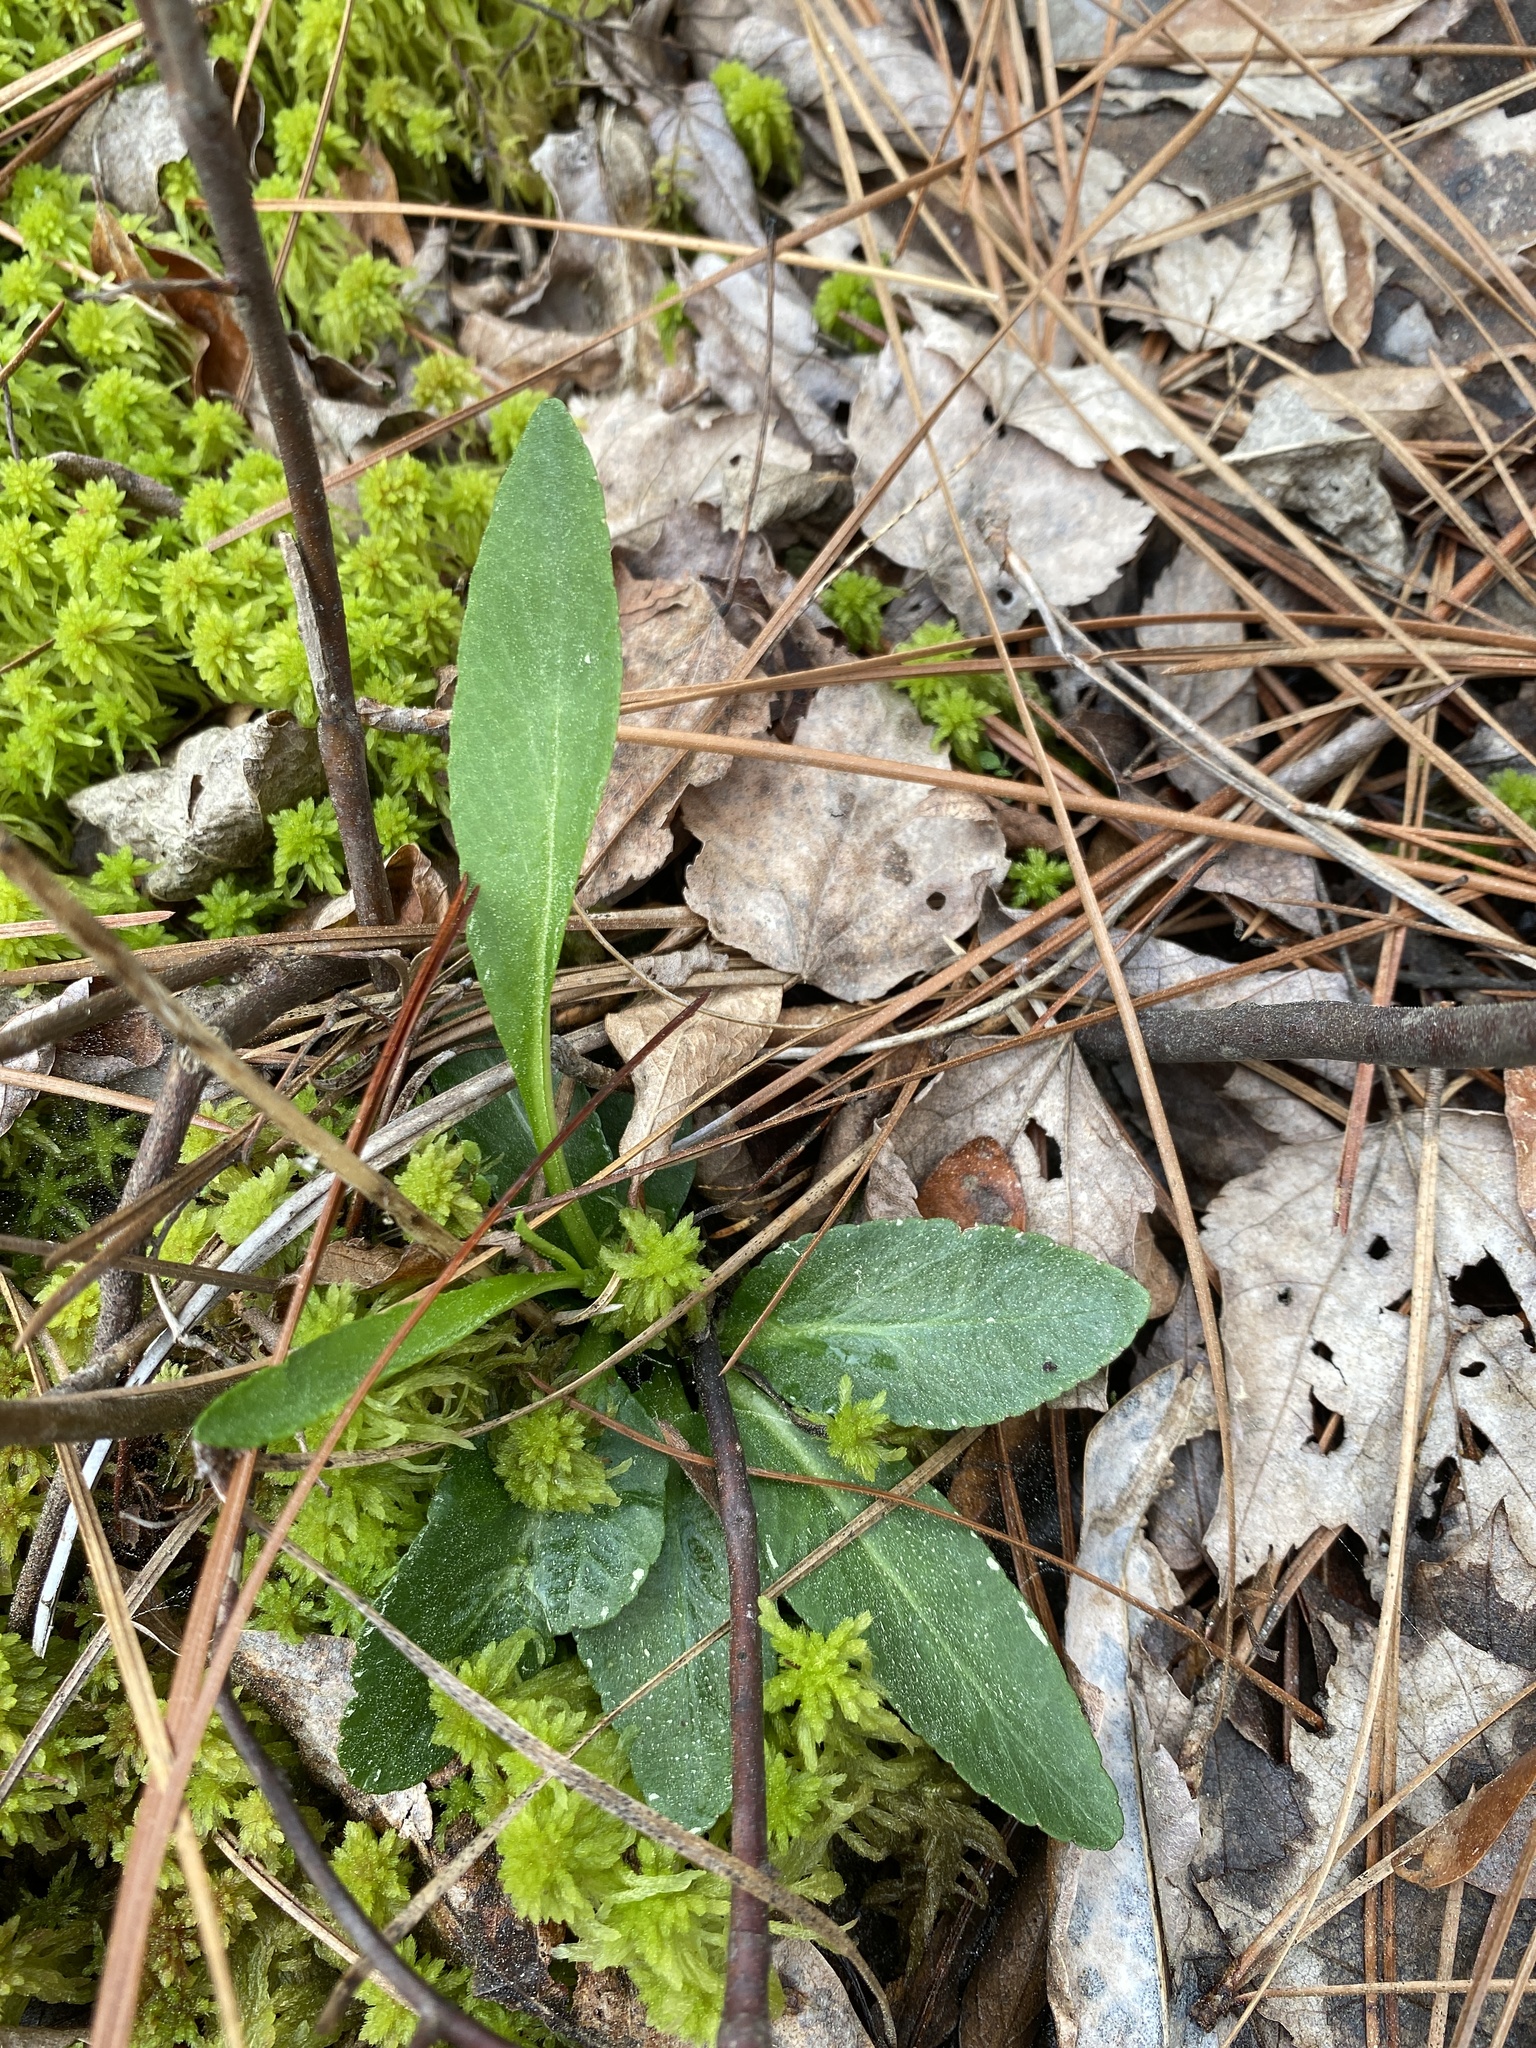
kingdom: Plantae
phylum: Tracheophyta
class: Magnoliopsida
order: Malpighiales
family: Violaceae
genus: Viola
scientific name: Viola lanceolata
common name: Bog white violet
